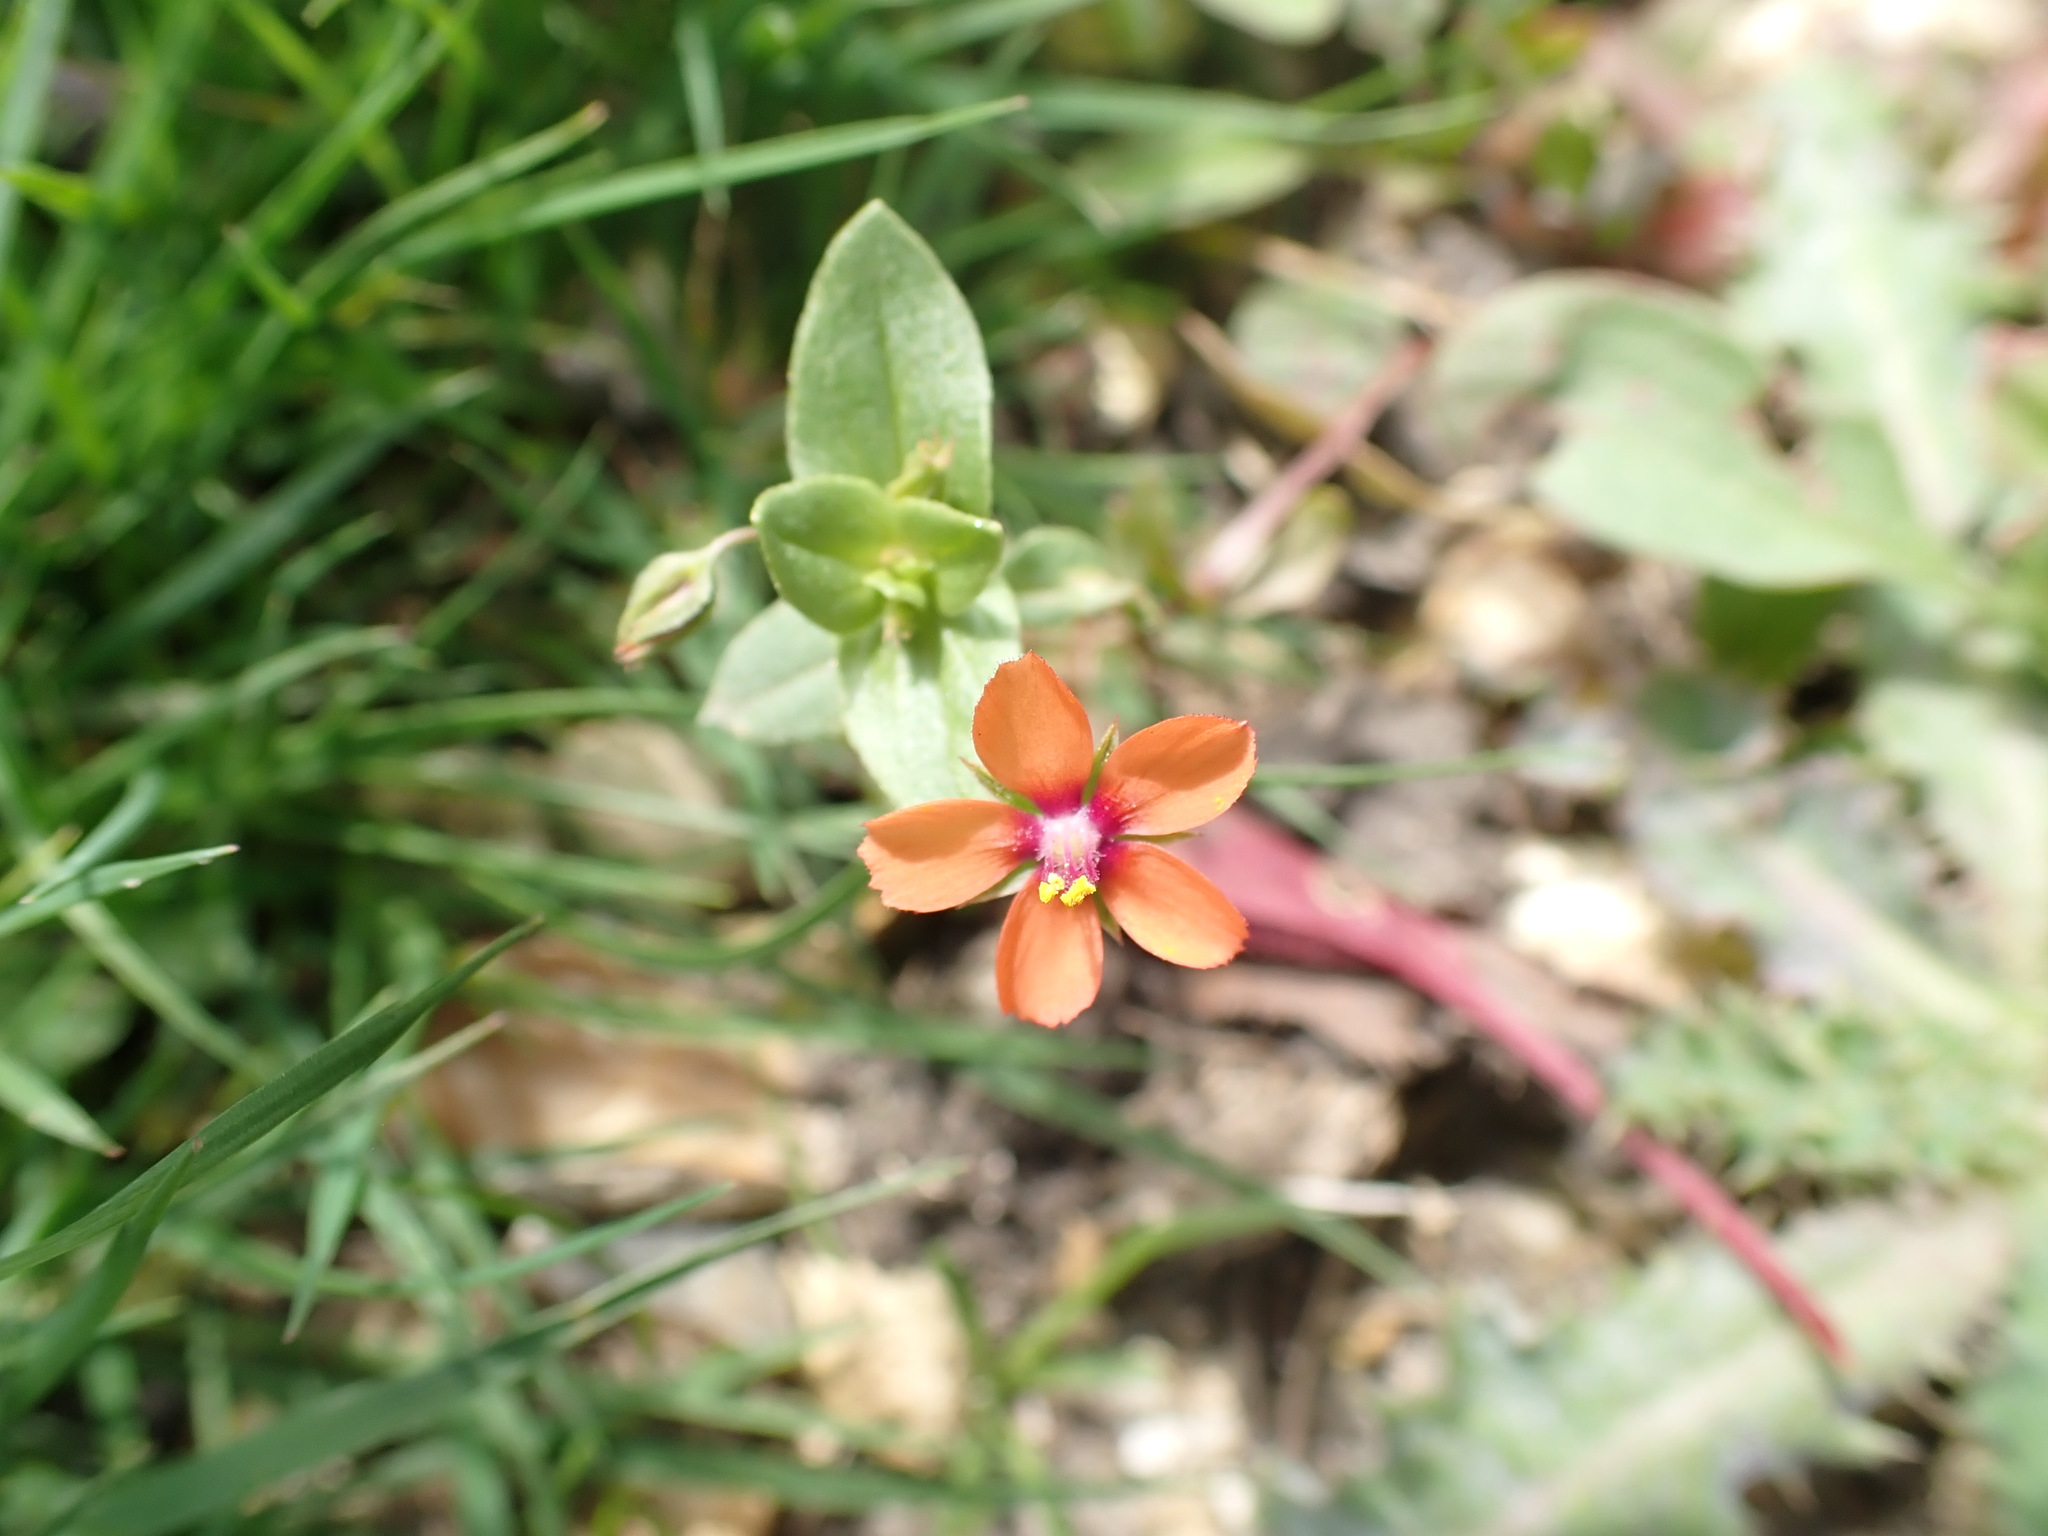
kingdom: Plantae
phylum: Tracheophyta
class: Magnoliopsida
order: Ericales
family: Primulaceae
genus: Lysimachia
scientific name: Lysimachia arvensis
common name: Scarlet pimpernel
